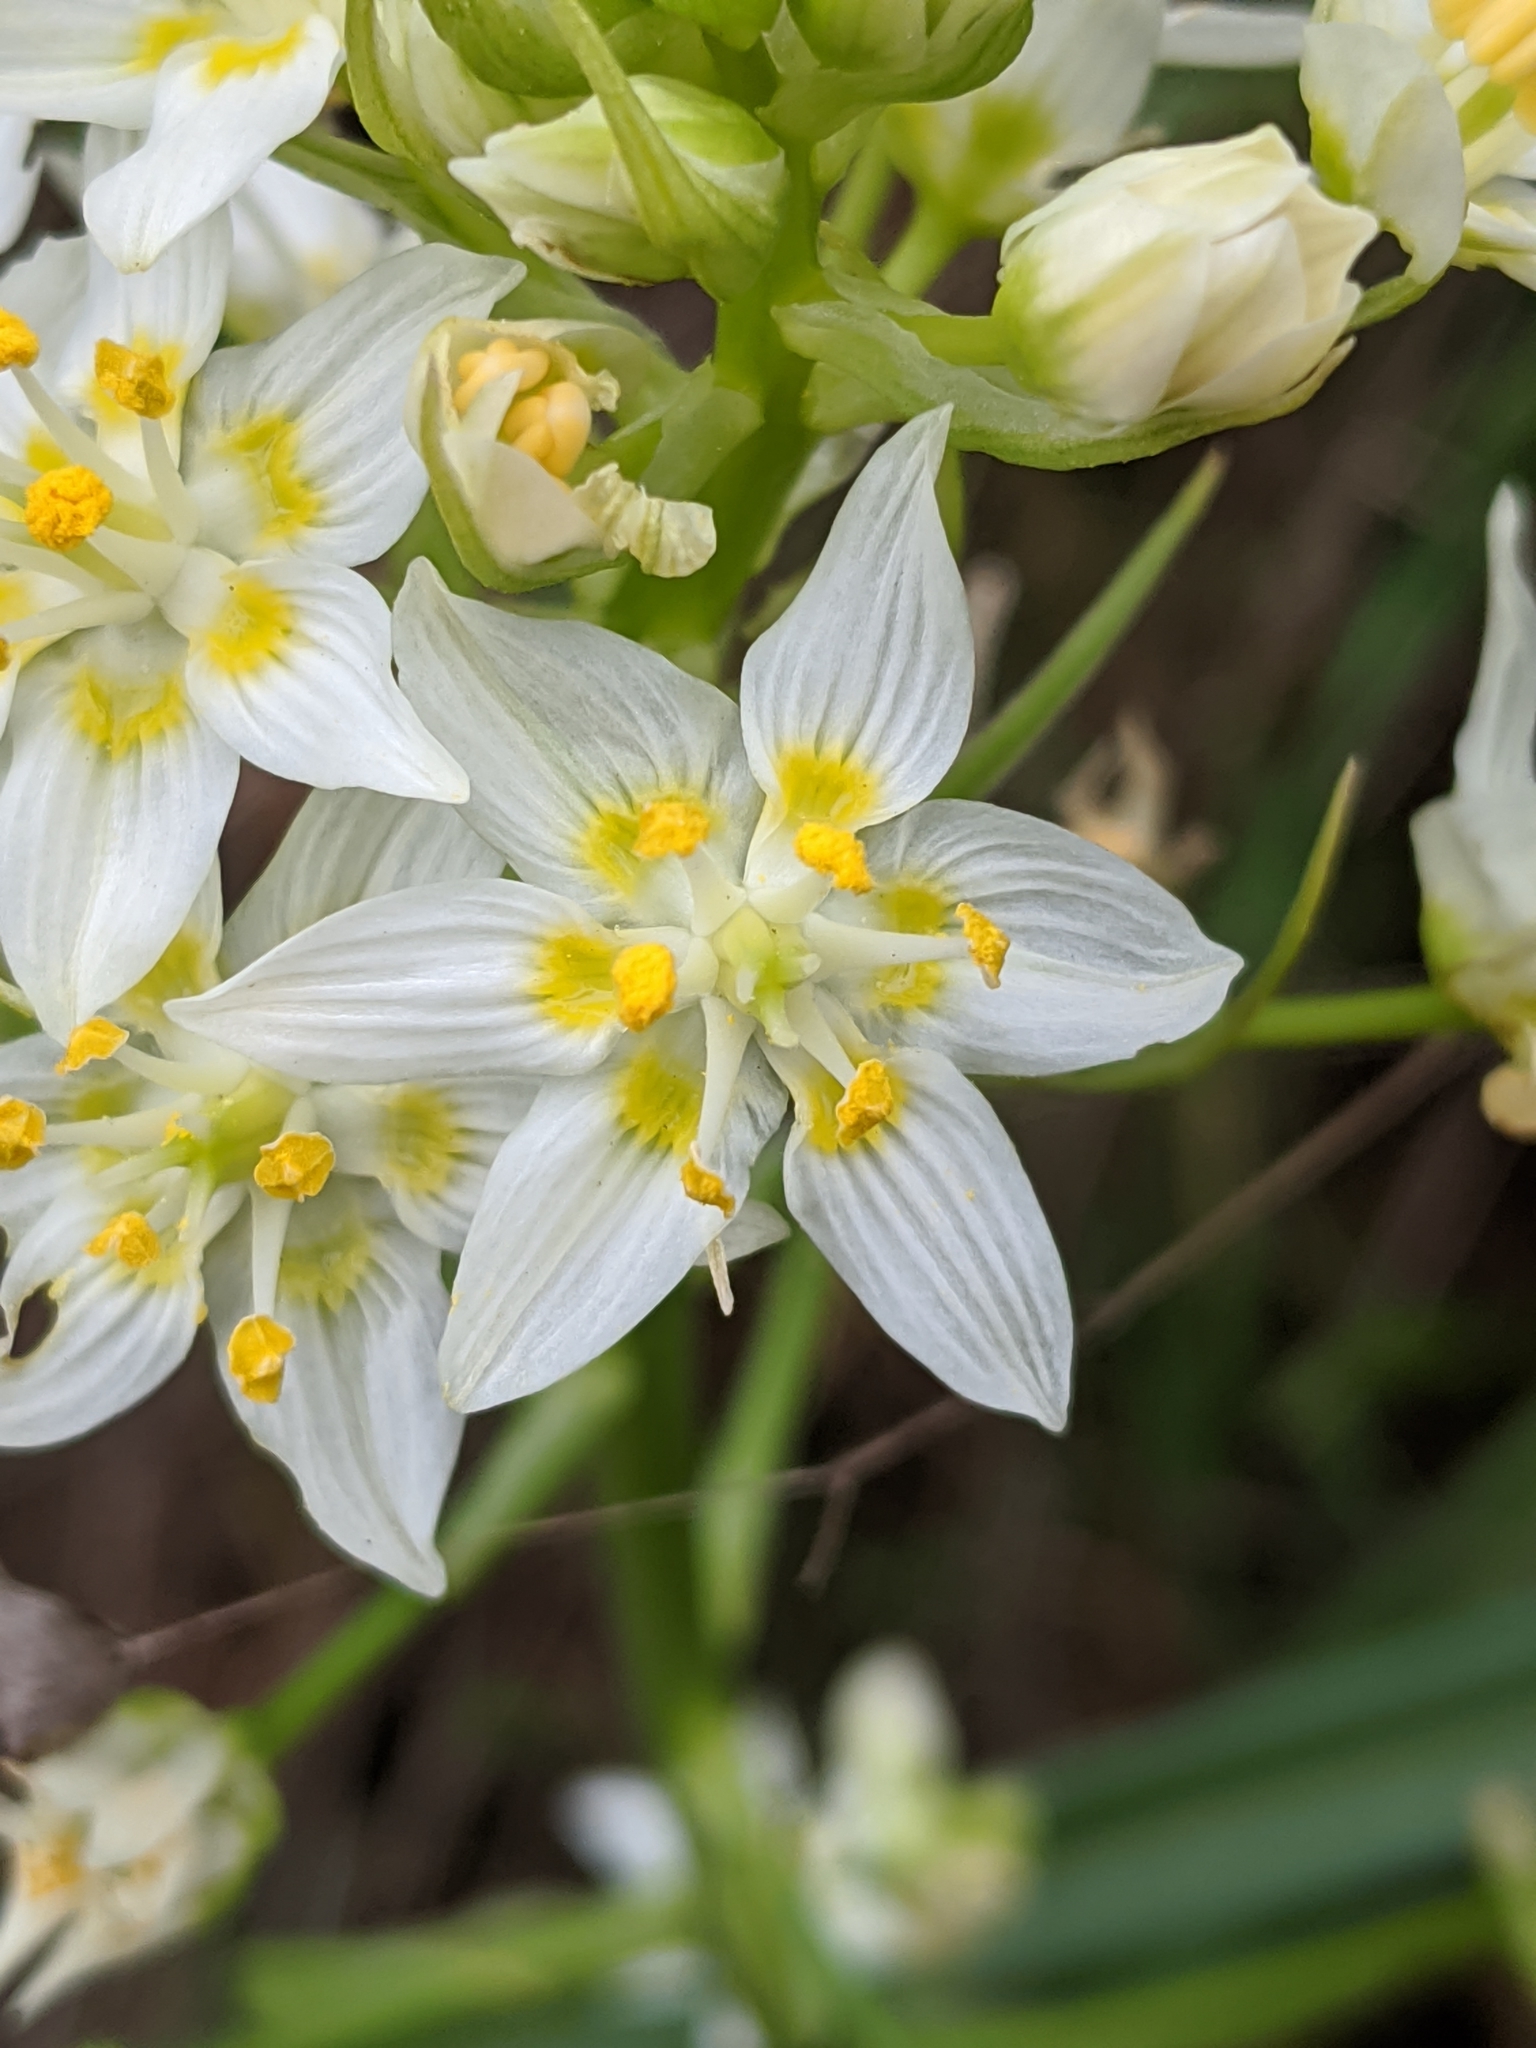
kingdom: Plantae
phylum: Tracheophyta
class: Liliopsida
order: Liliales
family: Melanthiaceae
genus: Toxicoscordion
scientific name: Toxicoscordion fremontii
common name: Fremont's death camas
